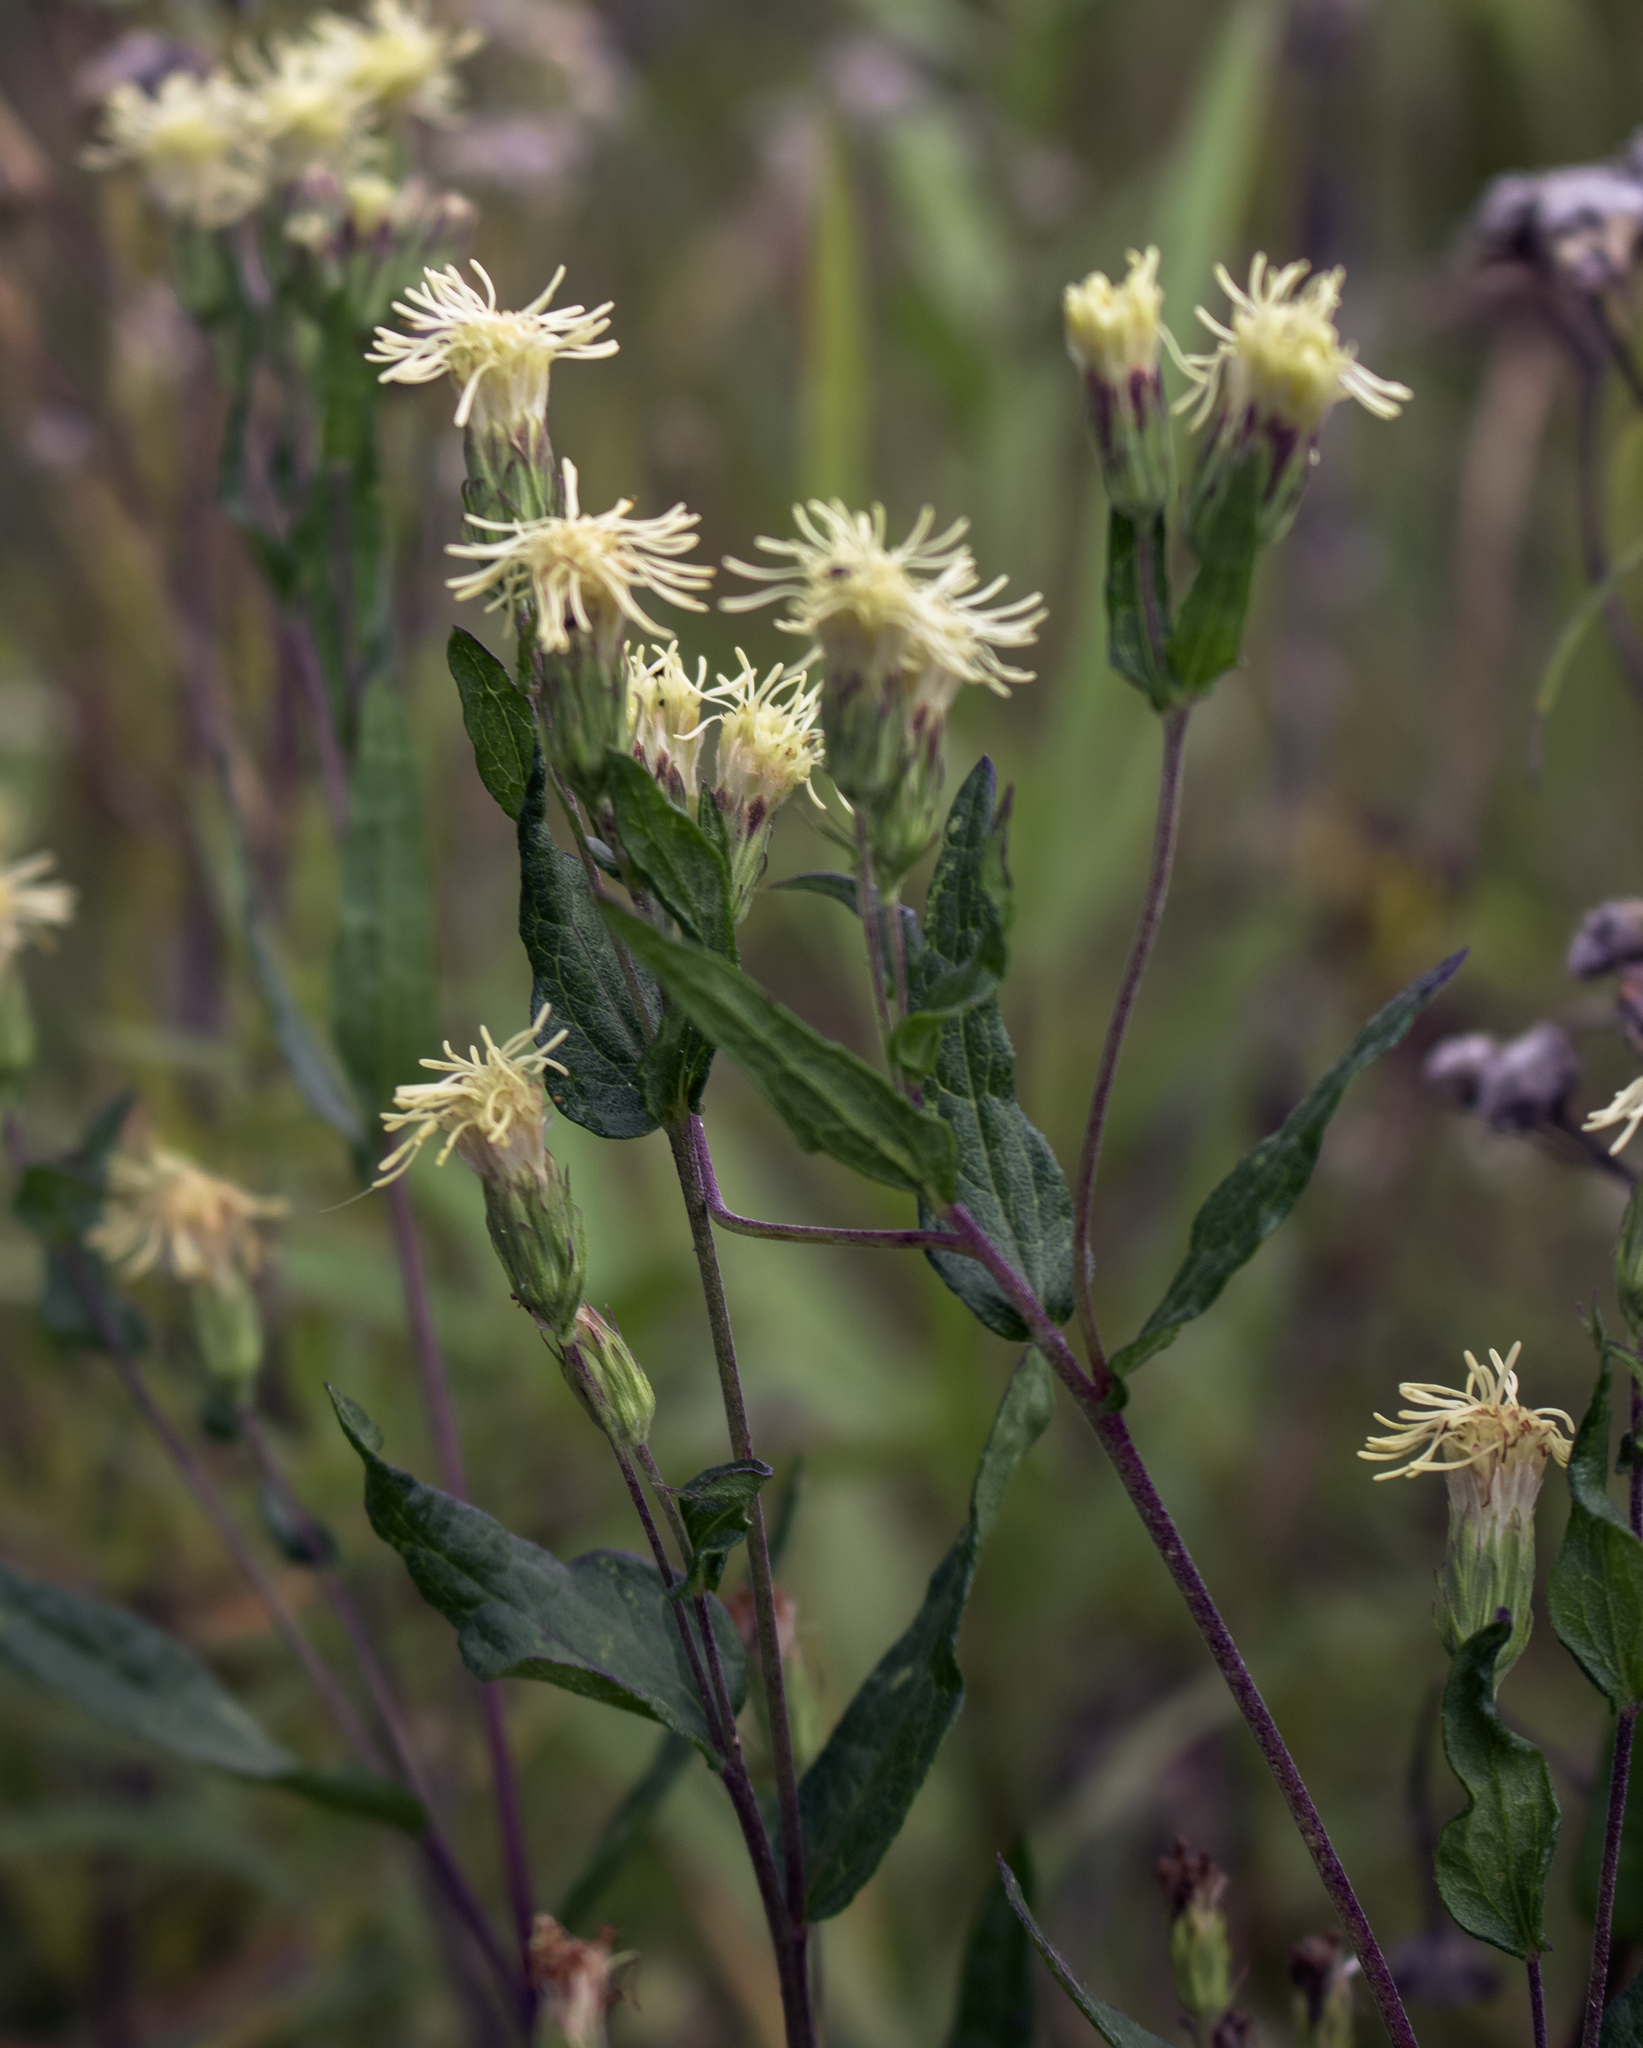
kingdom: Plantae
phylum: Tracheophyta
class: Magnoliopsida
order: Asterales
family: Asteraceae
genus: Brickellia
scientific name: Brickellia eupatorioides
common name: False boneset
